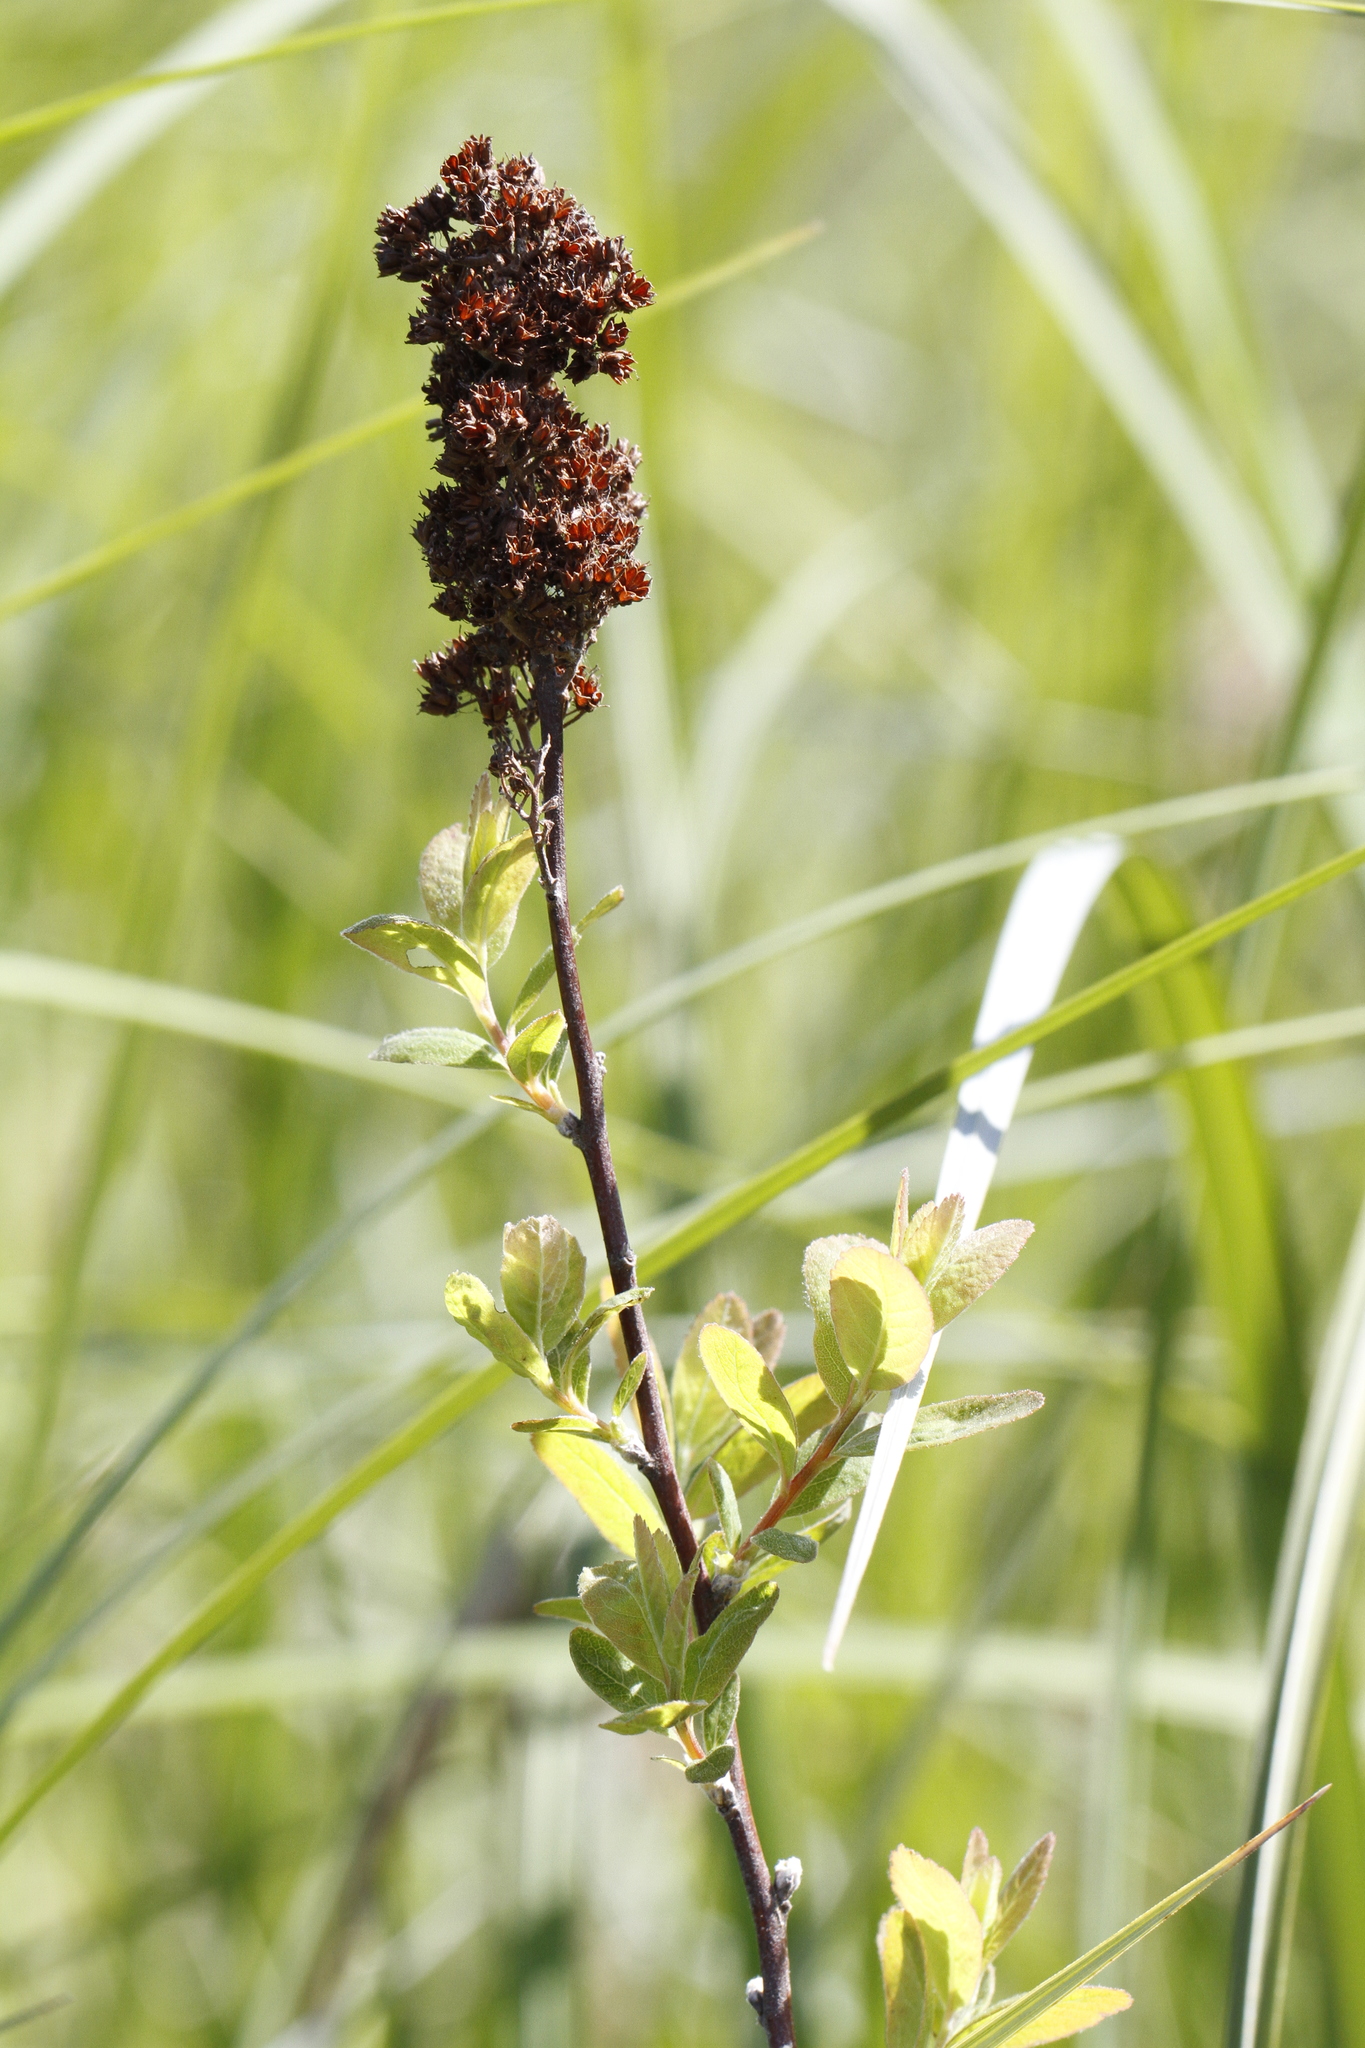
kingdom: Plantae
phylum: Tracheophyta
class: Magnoliopsida
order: Rosales
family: Rosaceae
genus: Spiraea
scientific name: Spiraea douglasii
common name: Steeplebush
